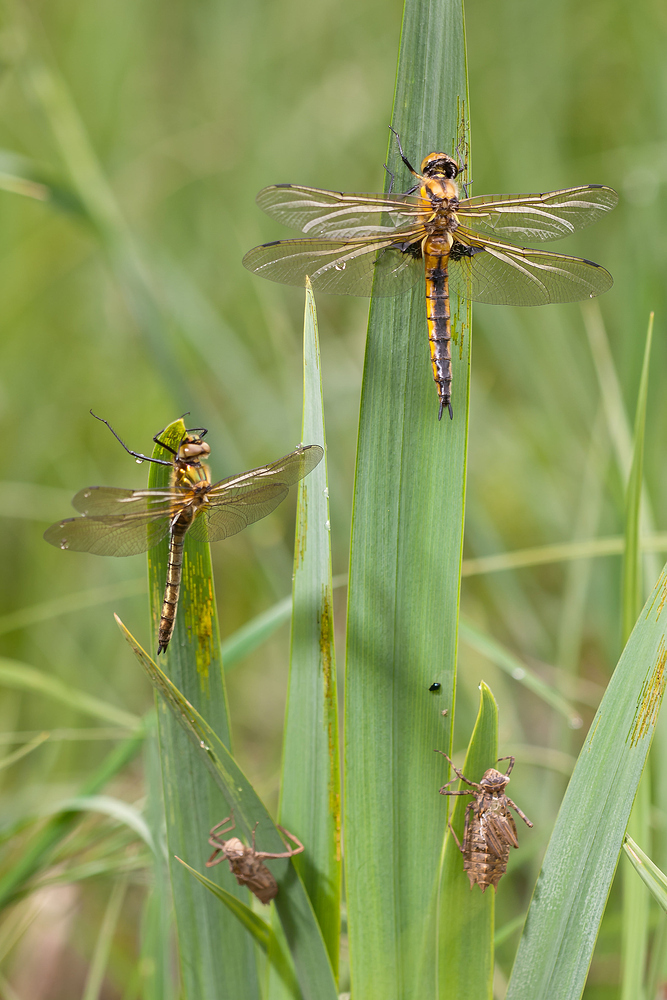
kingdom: Animalia
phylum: Arthropoda
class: Insecta
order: Odonata
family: Corduliidae
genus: Epitheca
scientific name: Epitheca bimaculata
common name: Eurasian baskettail
